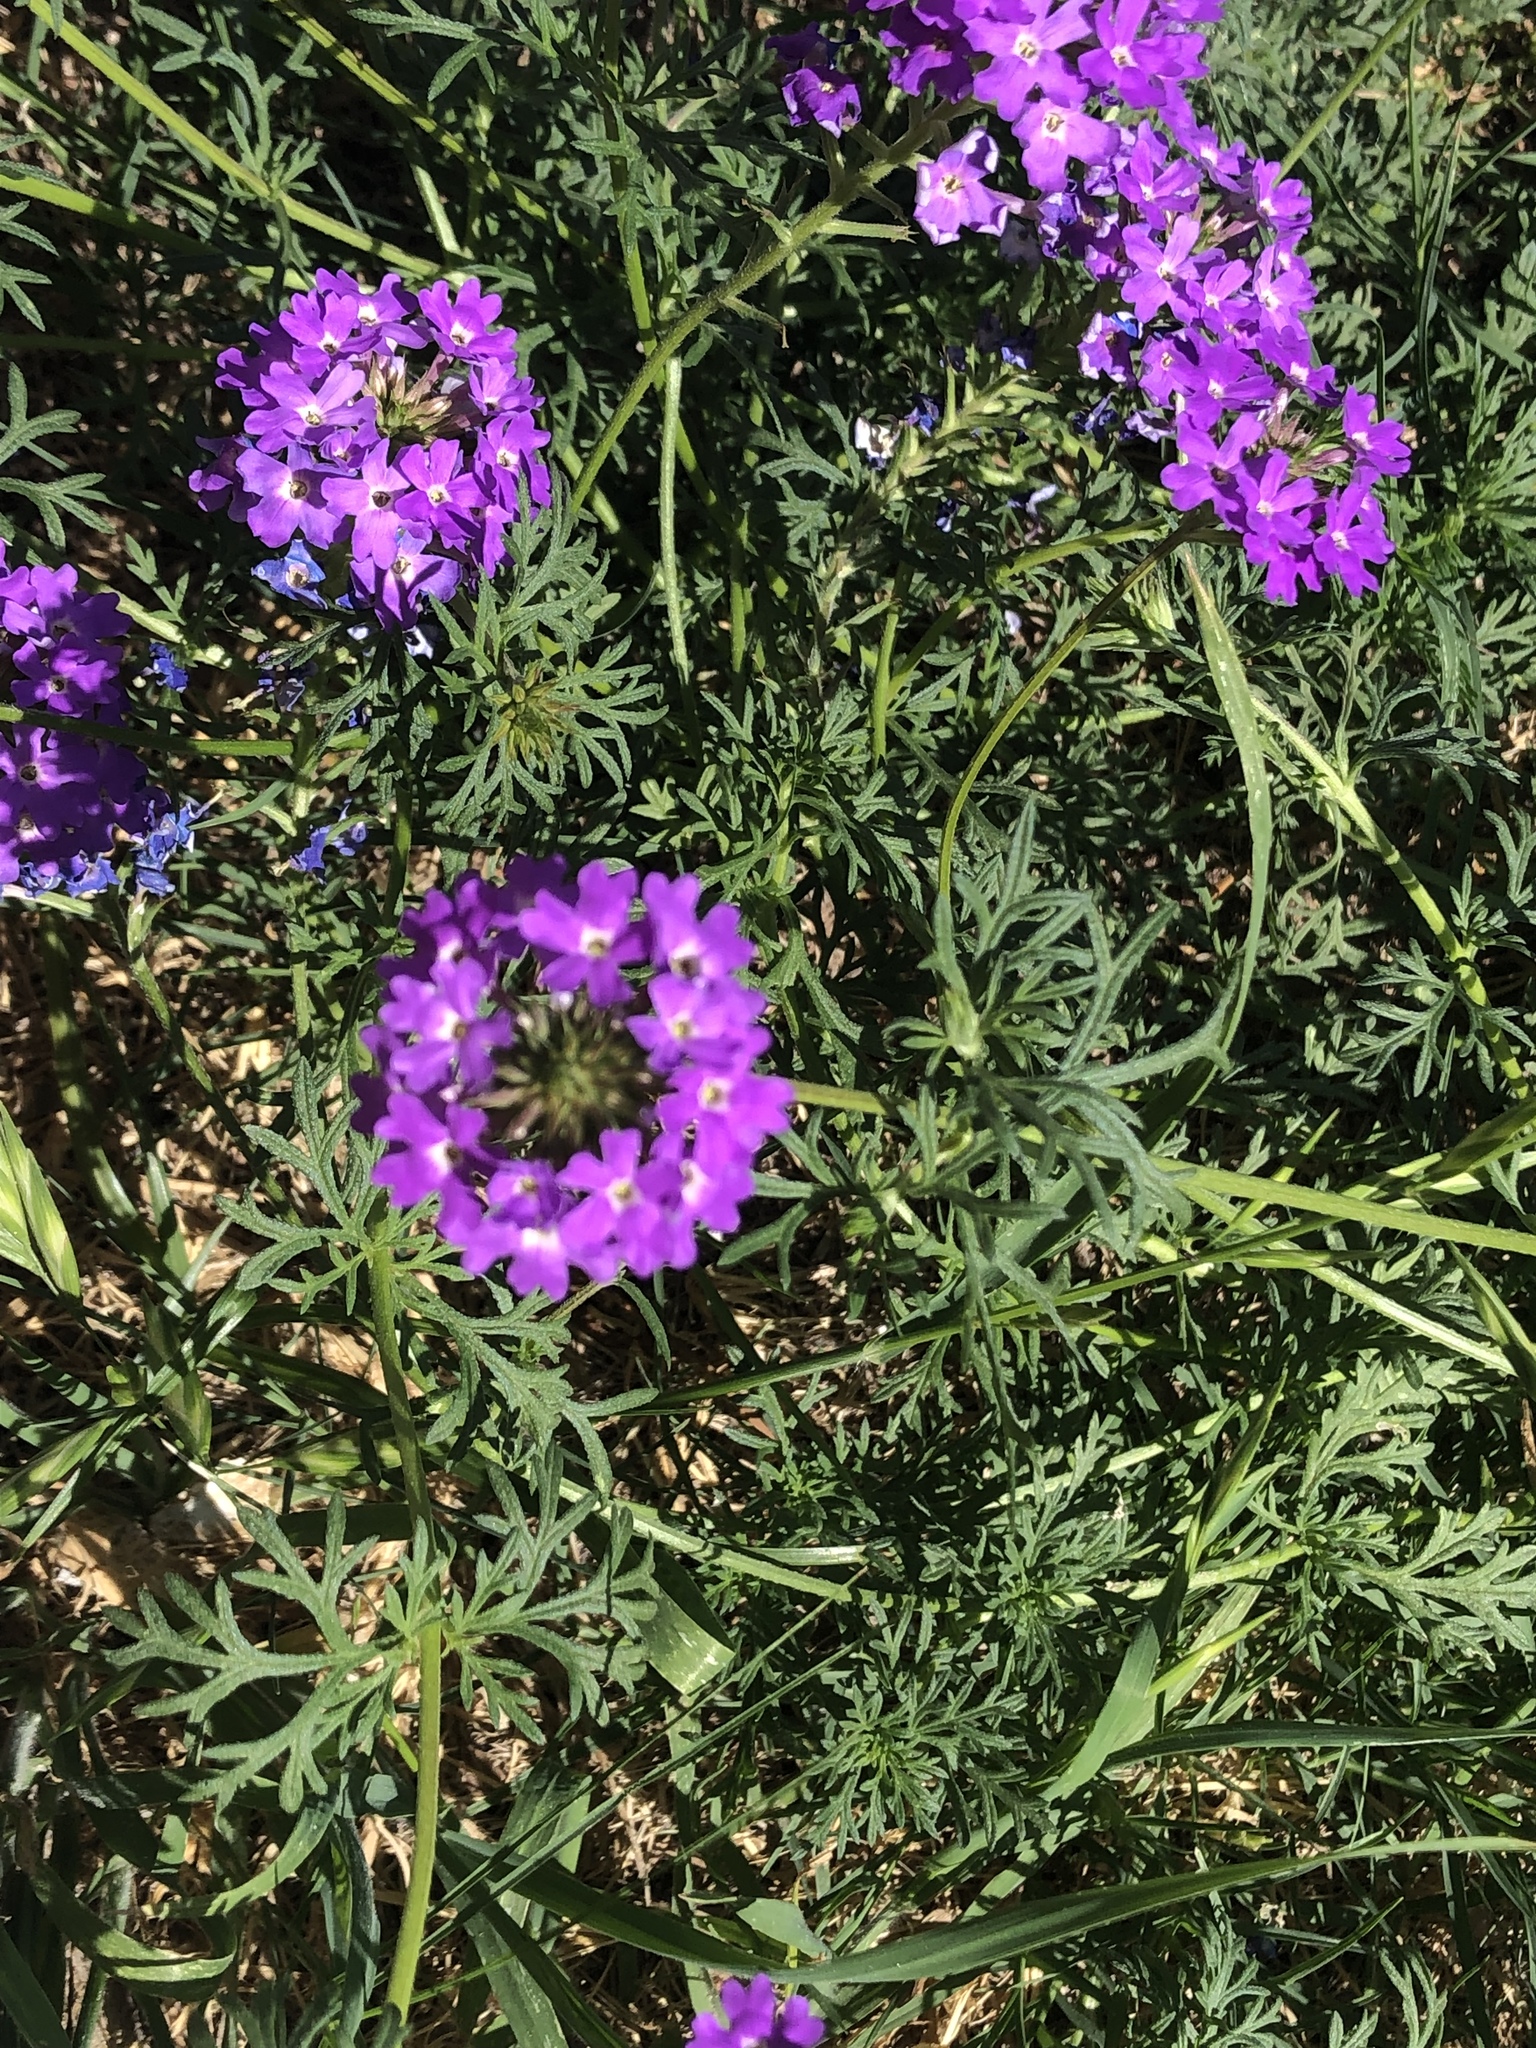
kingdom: Plantae
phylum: Tracheophyta
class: Magnoliopsida
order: Lamiales
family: Verbenaceae
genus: Verbena
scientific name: Verbena bipinnatifida
